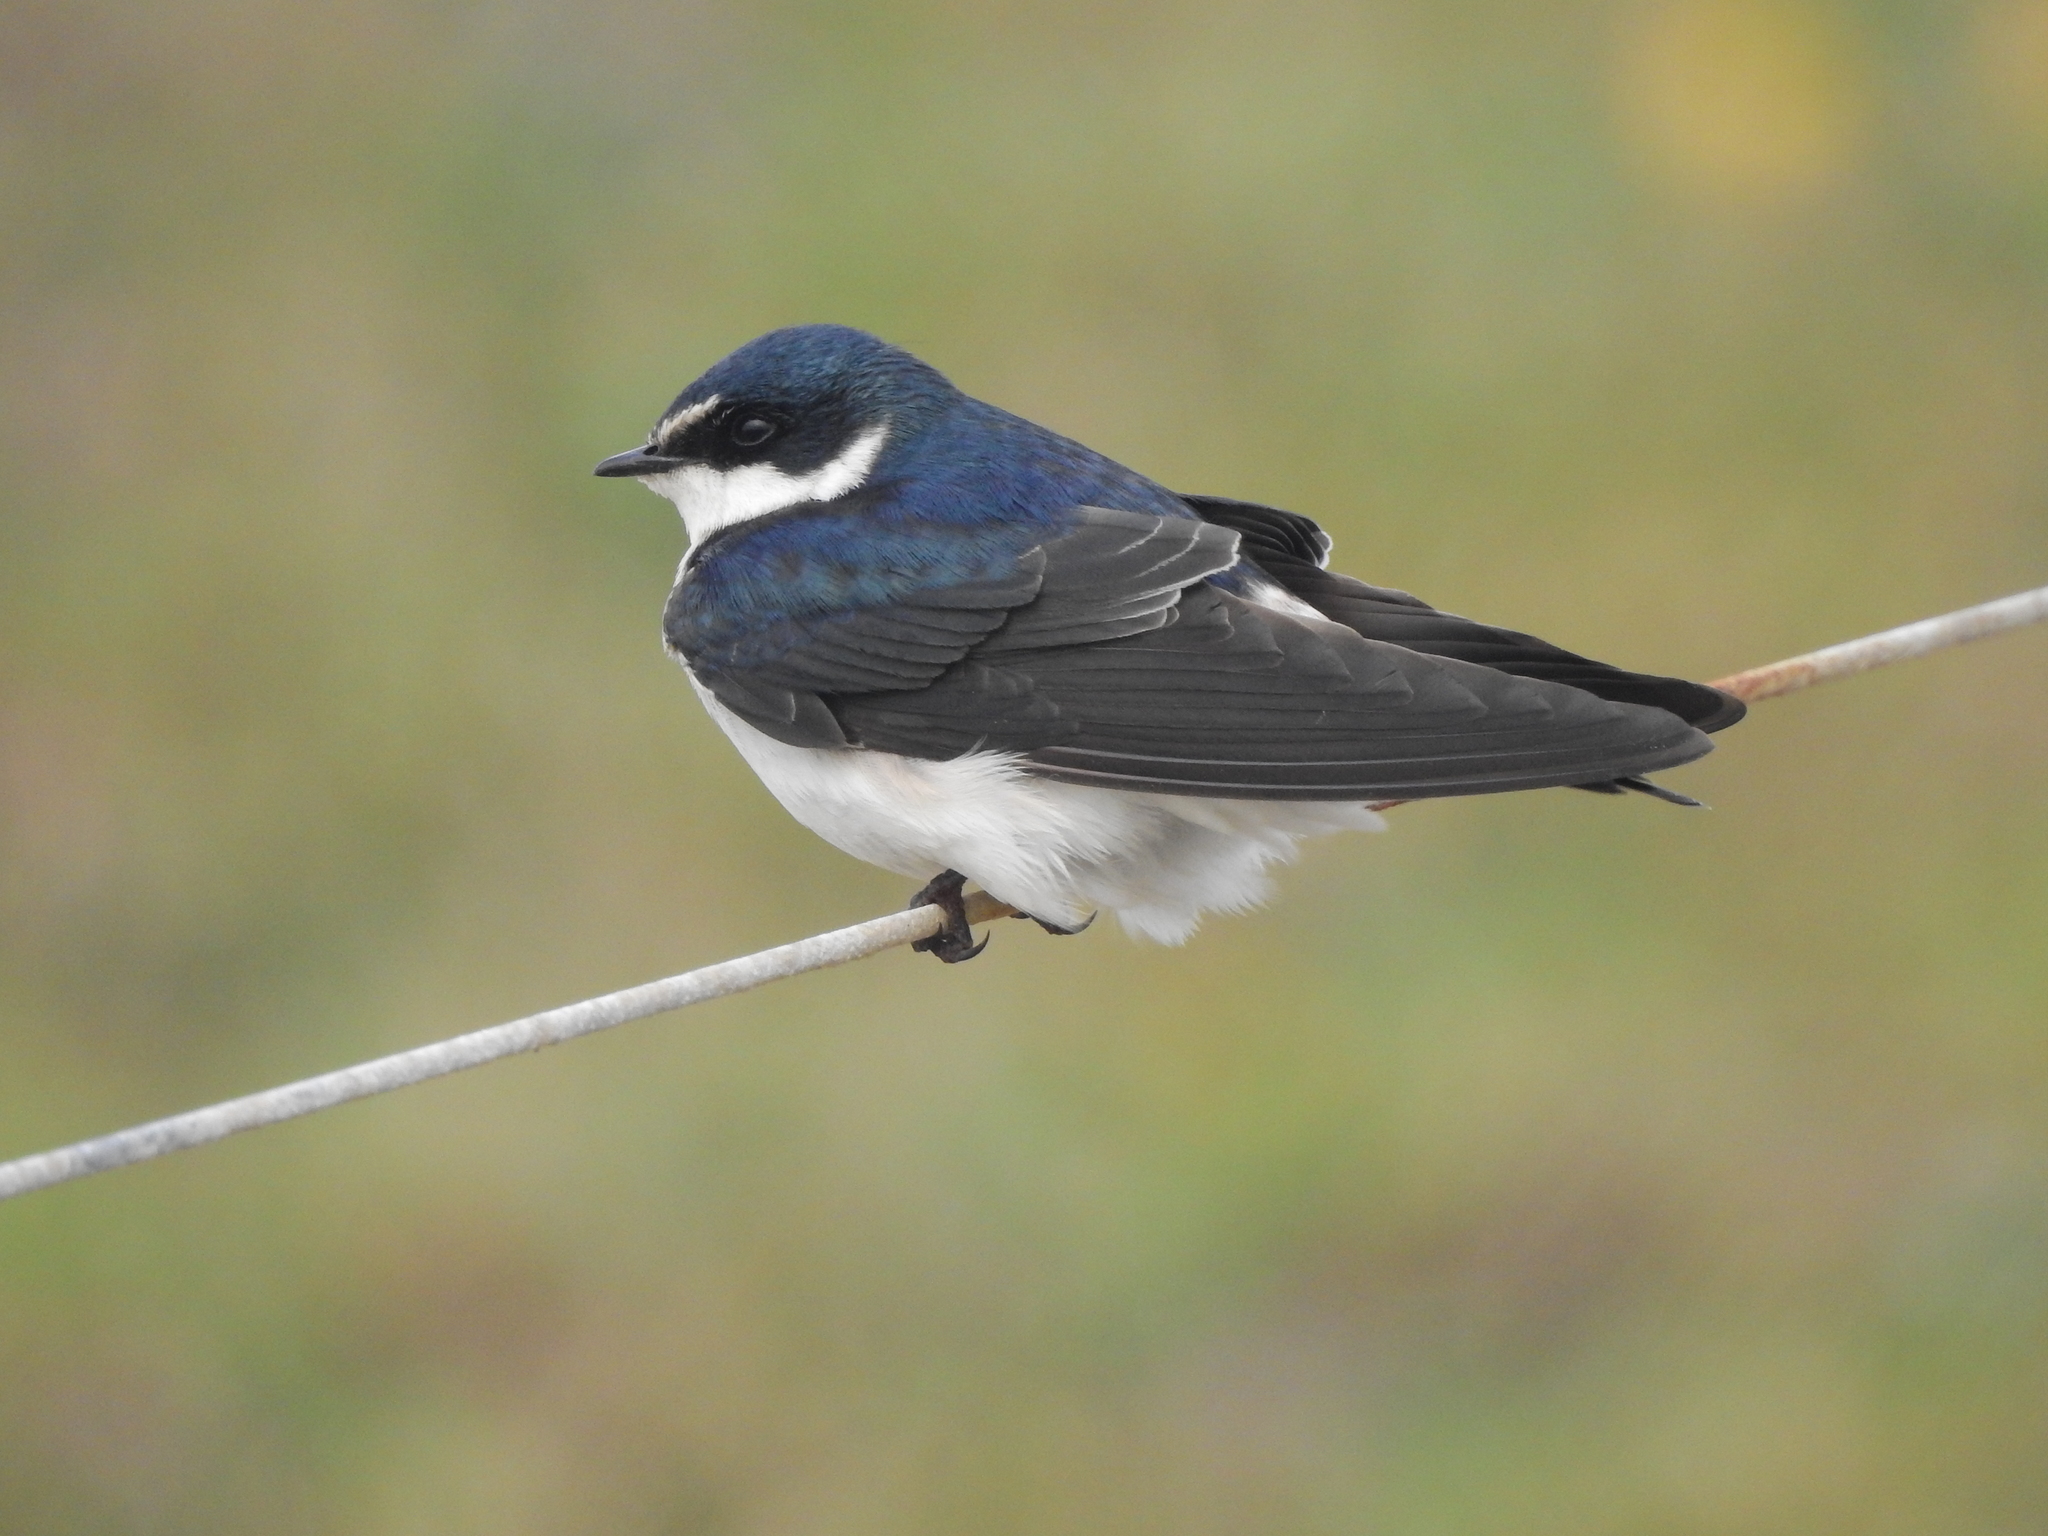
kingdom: Animalia
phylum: Chordata
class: Aves
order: Passeriformes
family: Hirundinidae
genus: Tachycineta
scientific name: Tachycineta leucorrhoa
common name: White-rumped swallow
